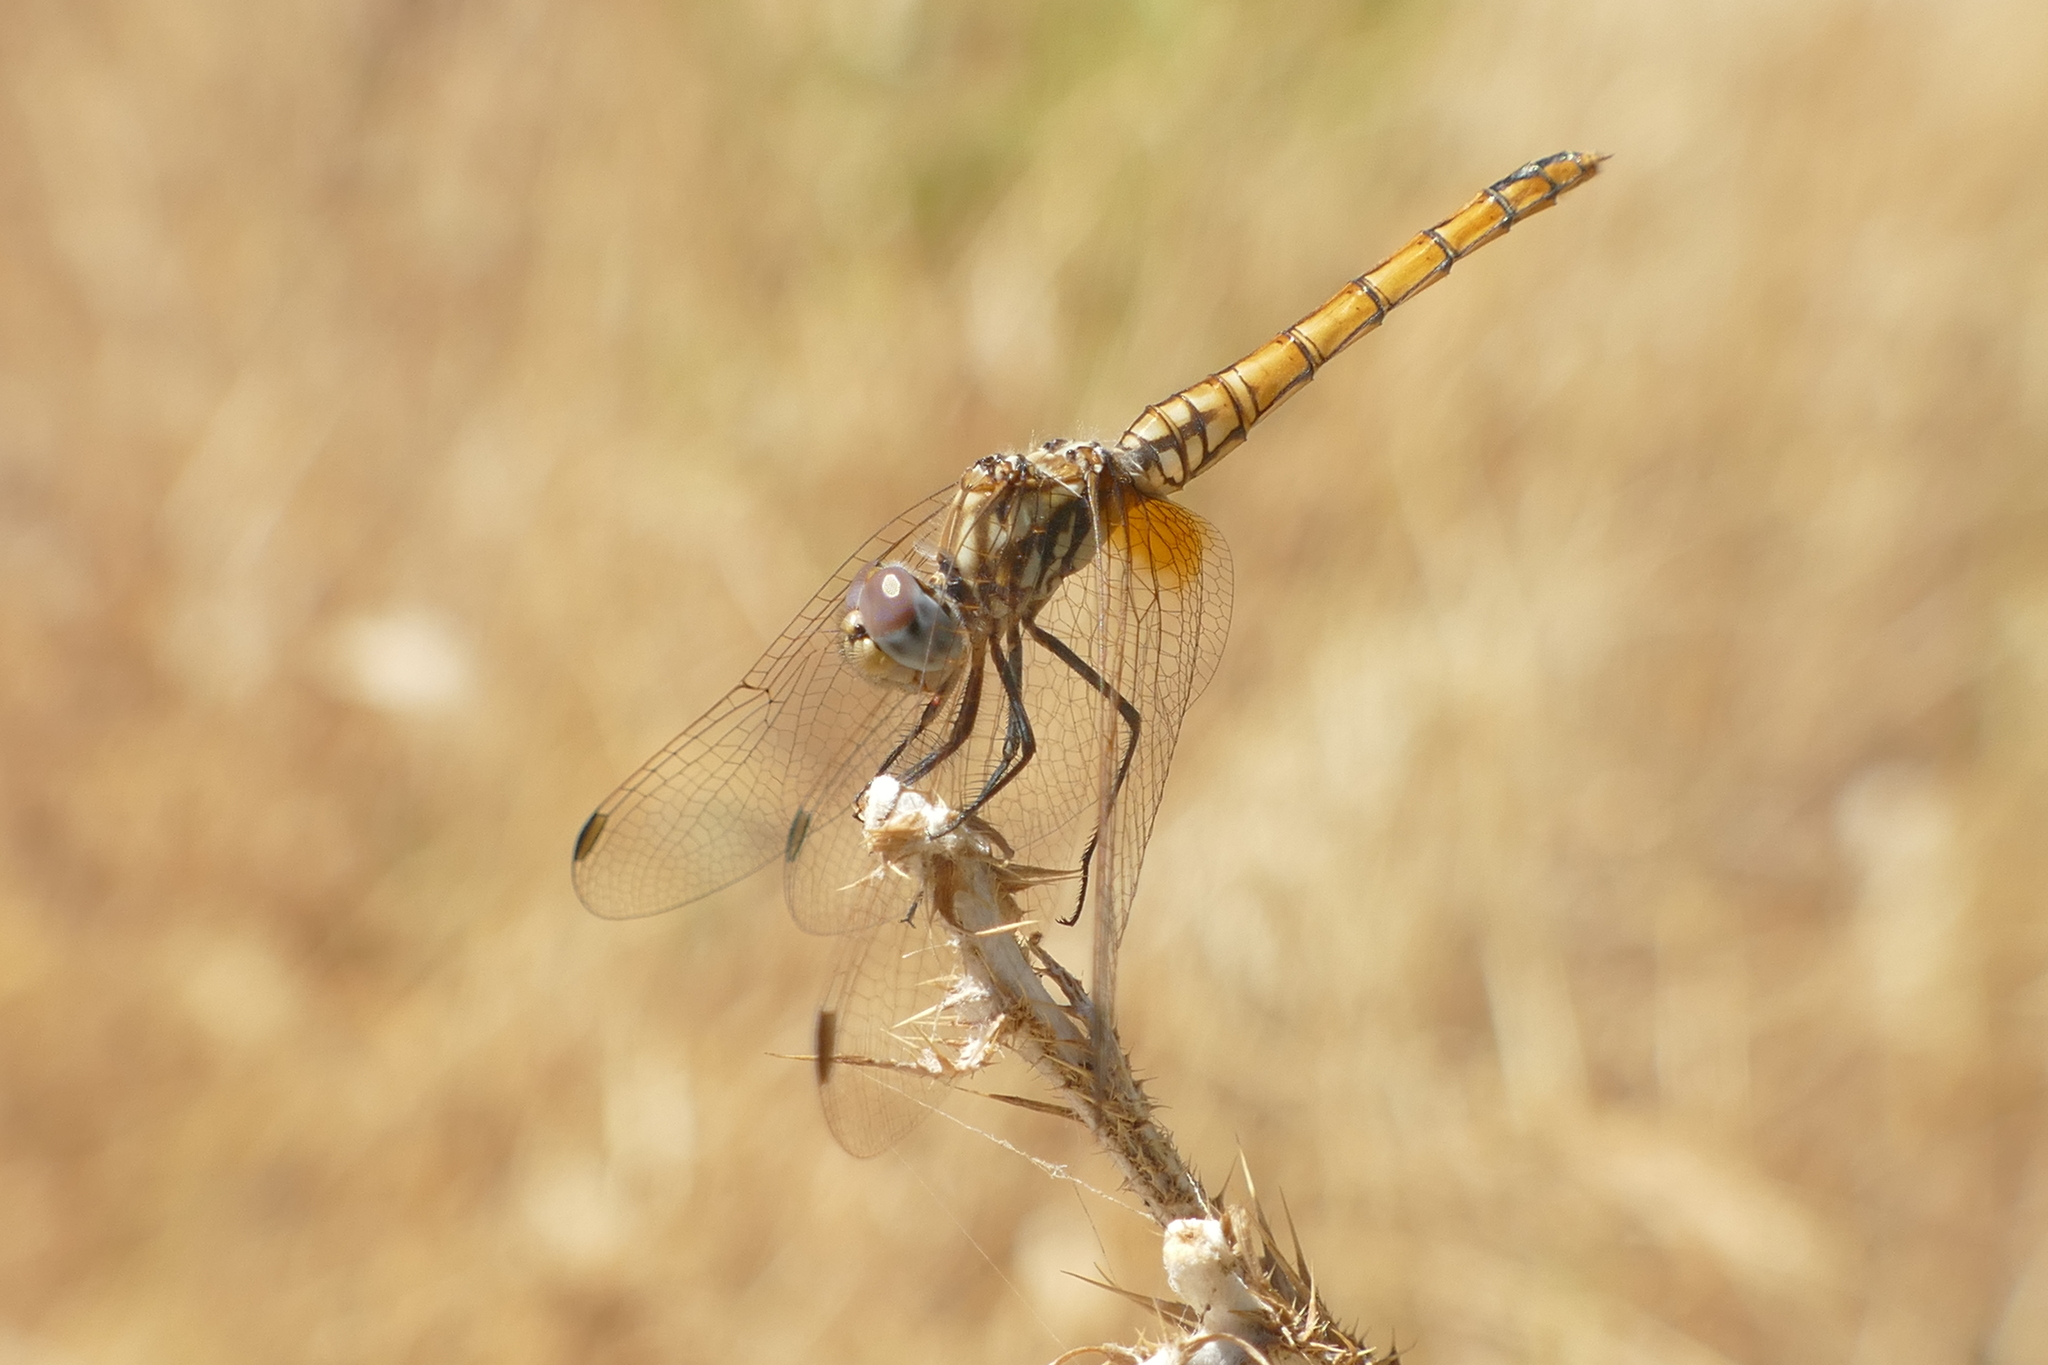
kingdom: Animalia
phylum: Arthropoda
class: Insecta
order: Odonata
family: Libellulidae
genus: Trithemis
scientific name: Trithemis annulata
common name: Violet dropwing
